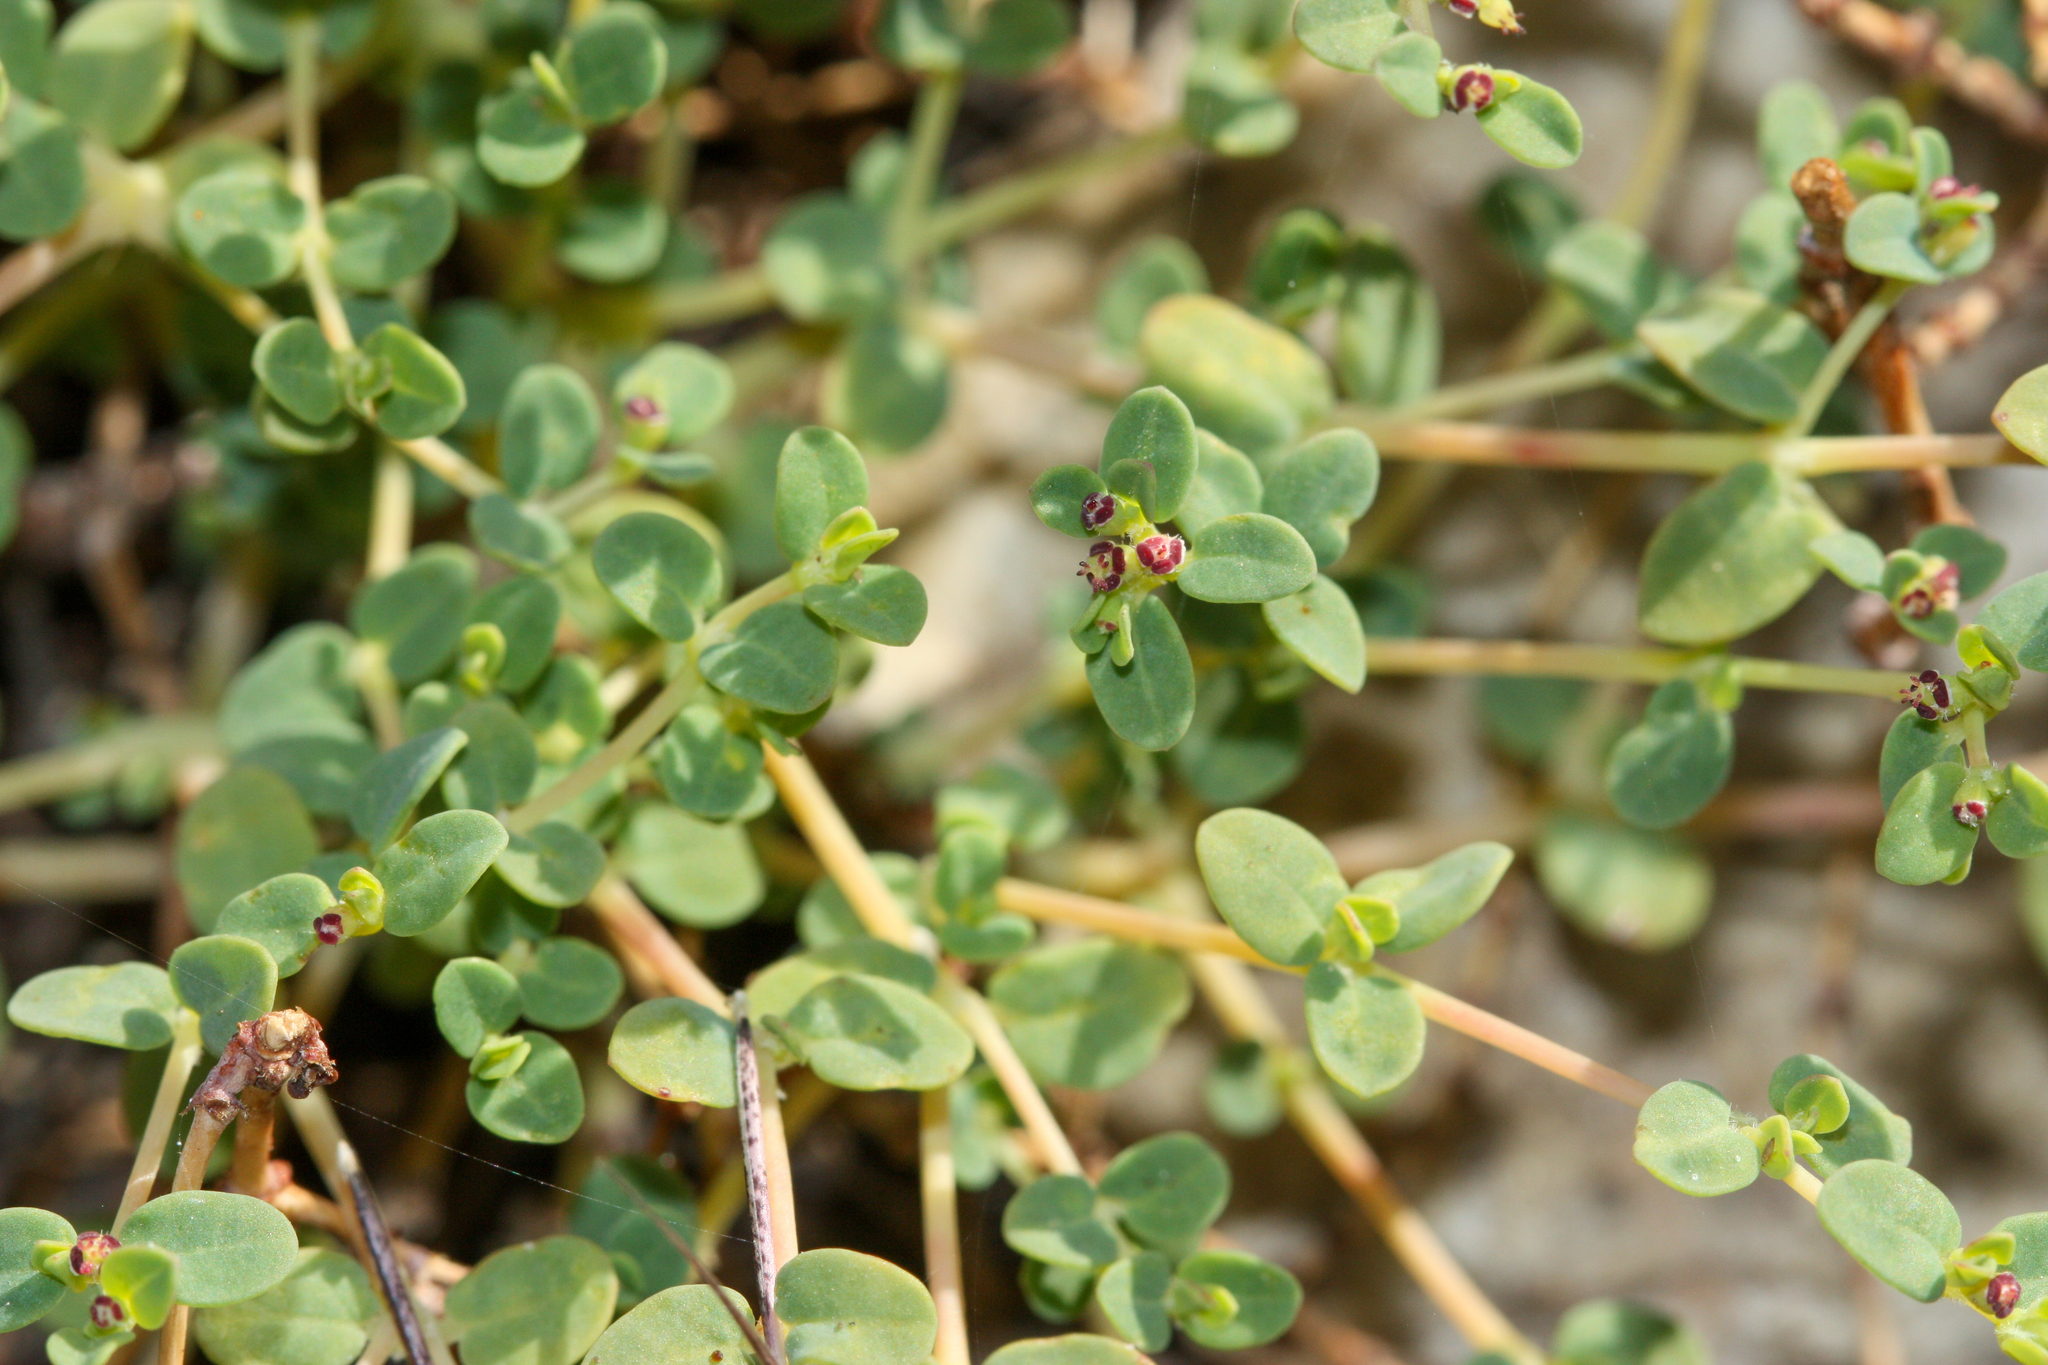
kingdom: Plantae
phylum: Tracheophyta
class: Magnoliopsida
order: Malpighiales
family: Euphorbiaceae
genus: Euphorbia
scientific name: Euphorbia polycarpa
